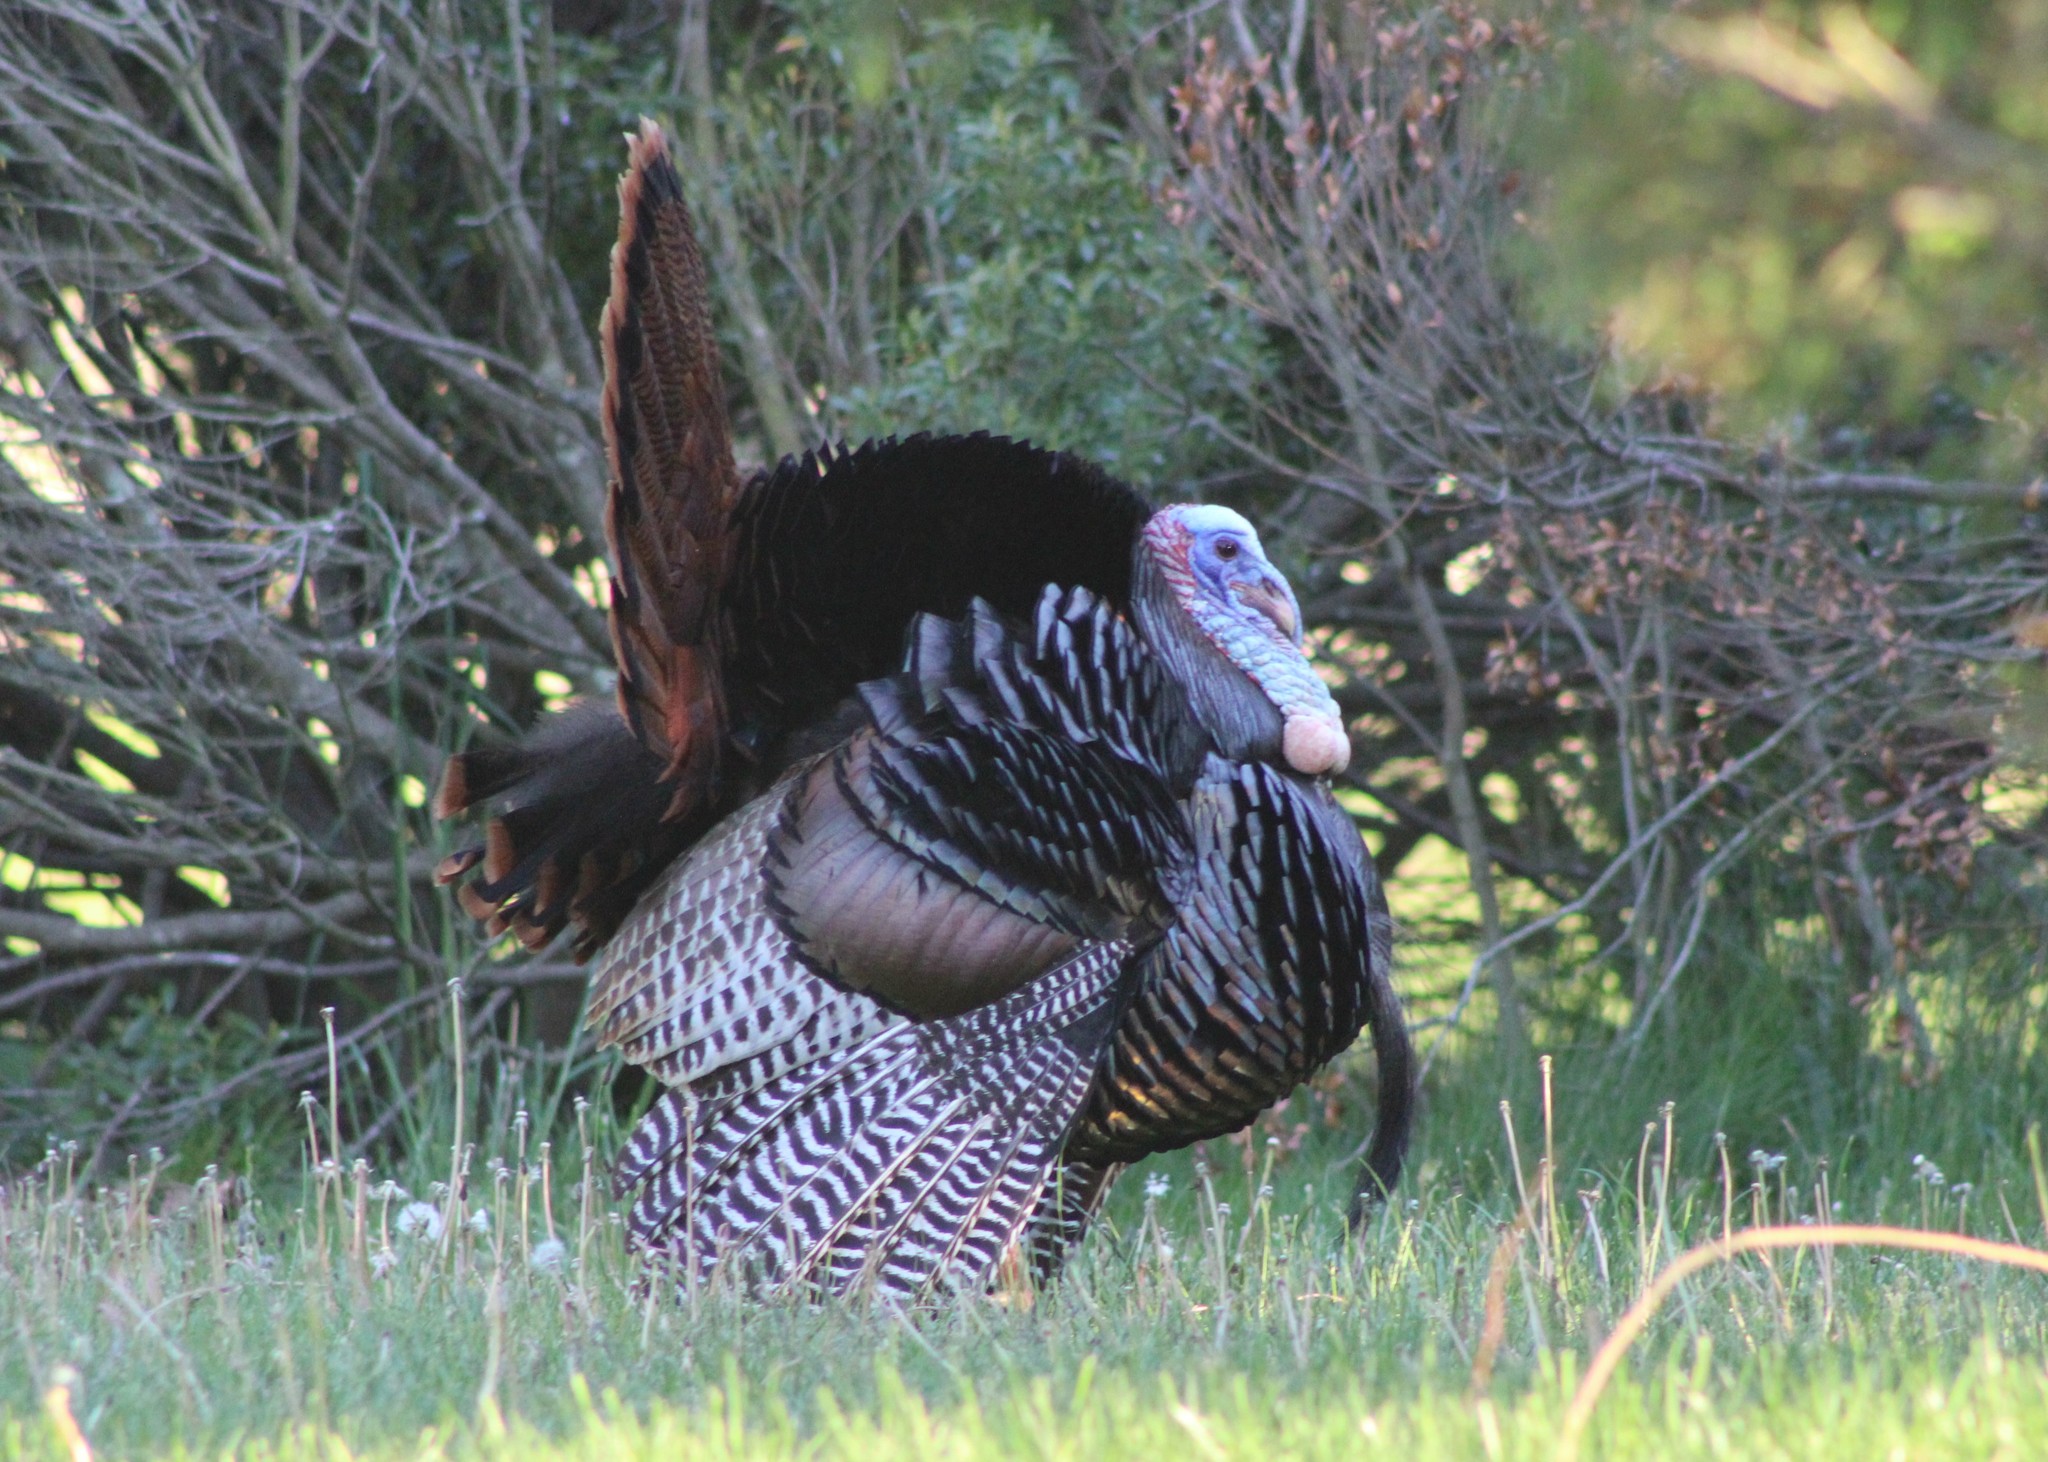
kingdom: Animalia
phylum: Chordata
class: Aves
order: Galliformes
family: Phasianidae
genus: Meleagris
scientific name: Meleagris gallopavo
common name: Wild turkey
